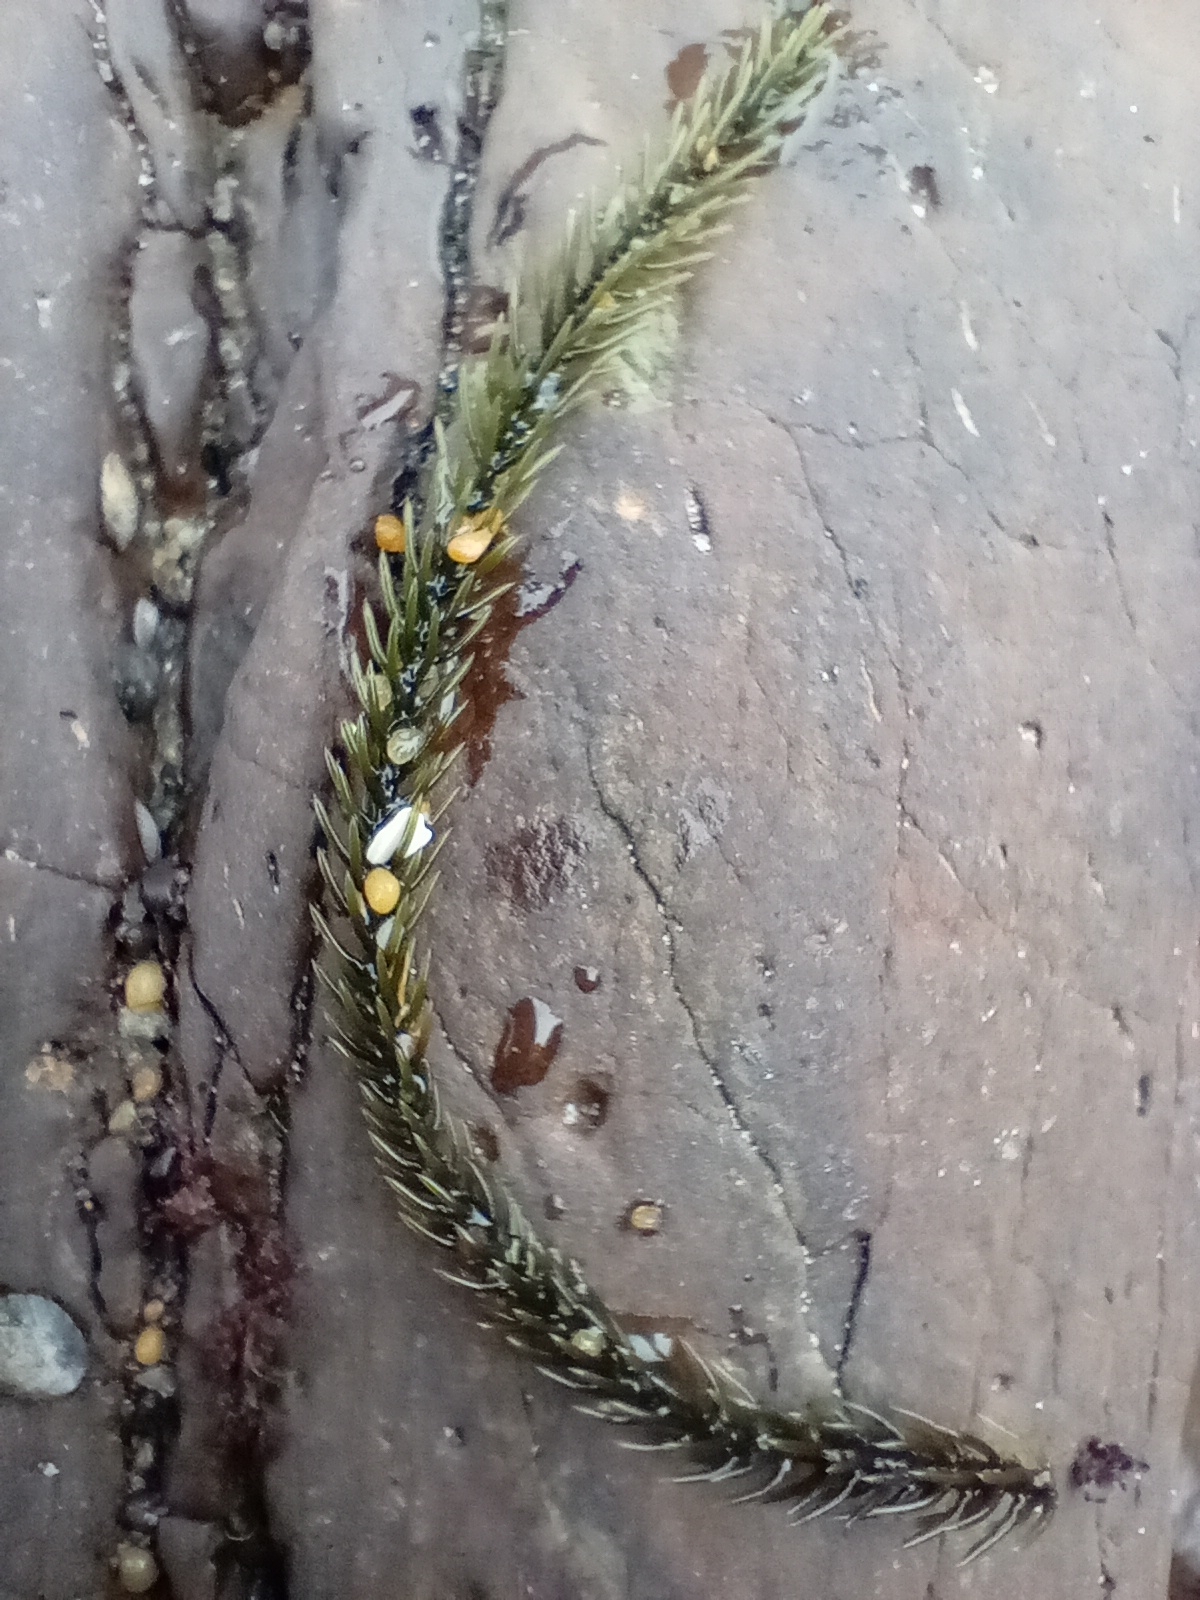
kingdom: Plantae
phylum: Chlorophyta
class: Ulvophyceae
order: Bryopsidales
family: Caulerpaceae
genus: Caulerpa
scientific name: Caulerpa brownii
